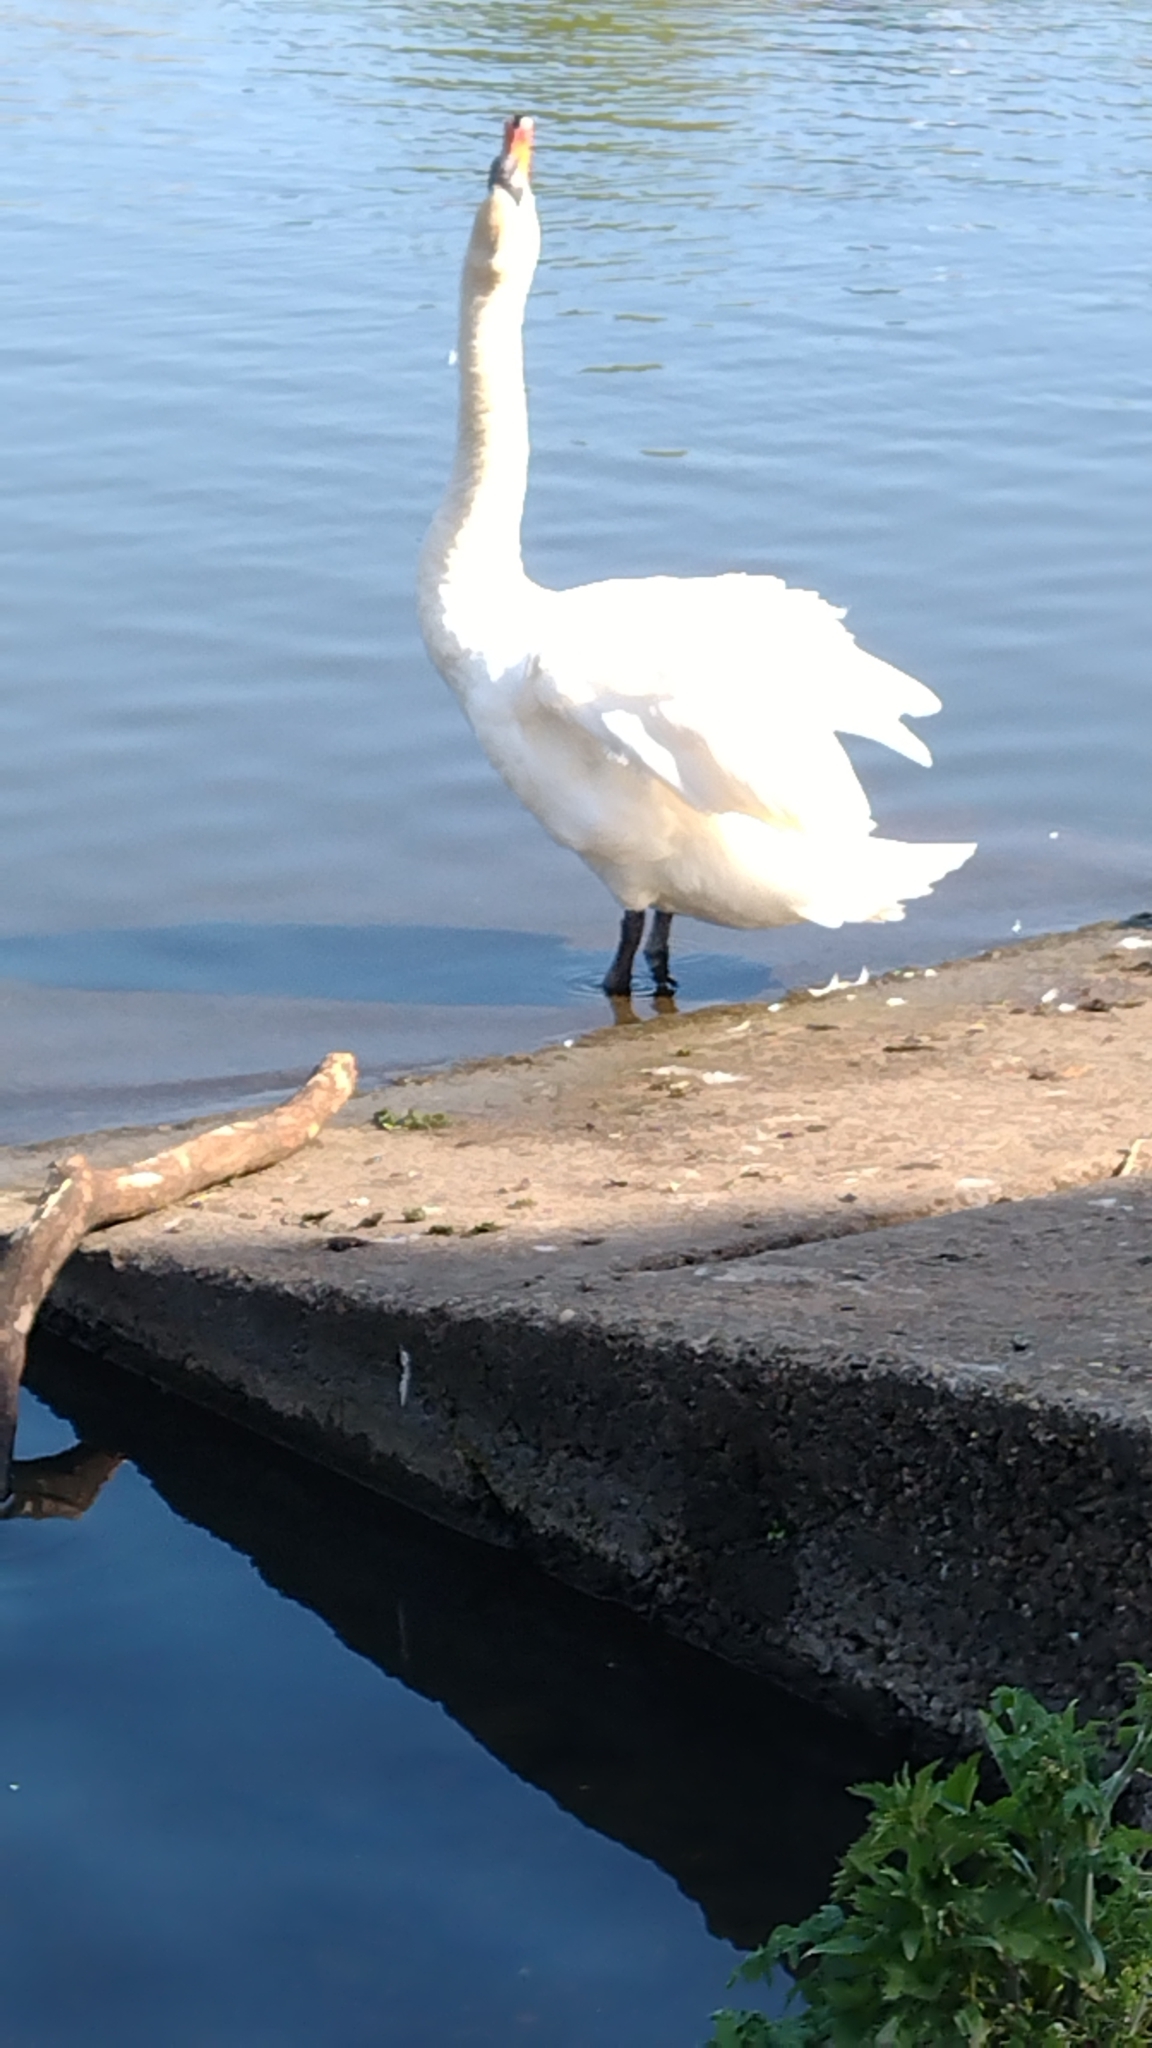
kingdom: Animalia
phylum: Chordata
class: Aves
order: Anseriformes
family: Anatidae
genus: Cygnus
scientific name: Cygnus olor
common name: Mute swan
